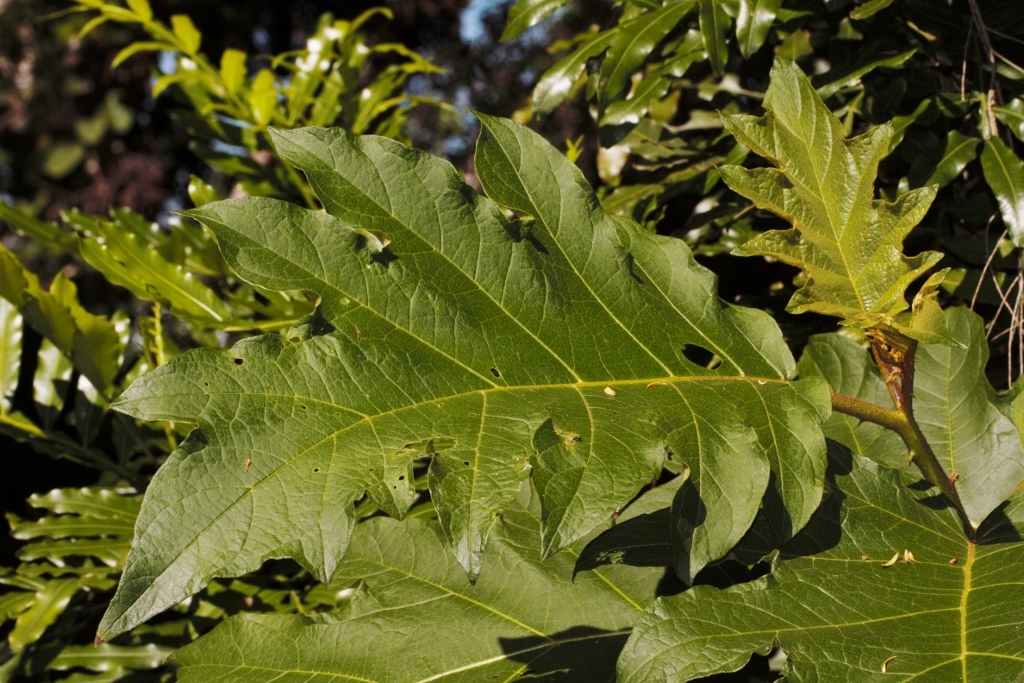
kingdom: Plantae
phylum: Tracheophyta
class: Magnoliopsida
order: Solanales
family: Solanaceae
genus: Solanum
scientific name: Solanum chrysotrichum
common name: Nightshade
